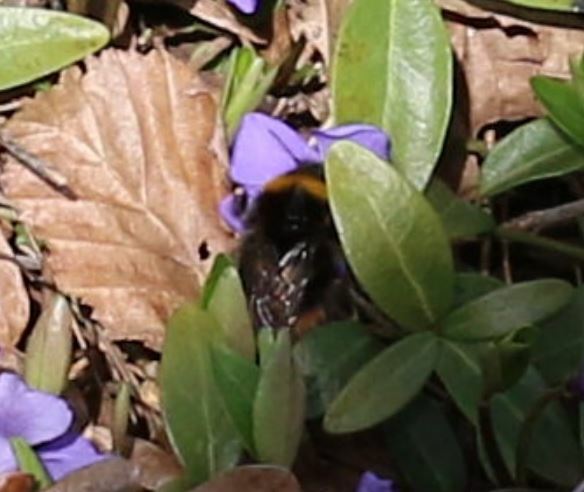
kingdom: Animalia
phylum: Arthropoda
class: Insecta
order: Hymenoptera
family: Apidae
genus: Bombus
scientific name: Bombus pratorum
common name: Early humble-bee
